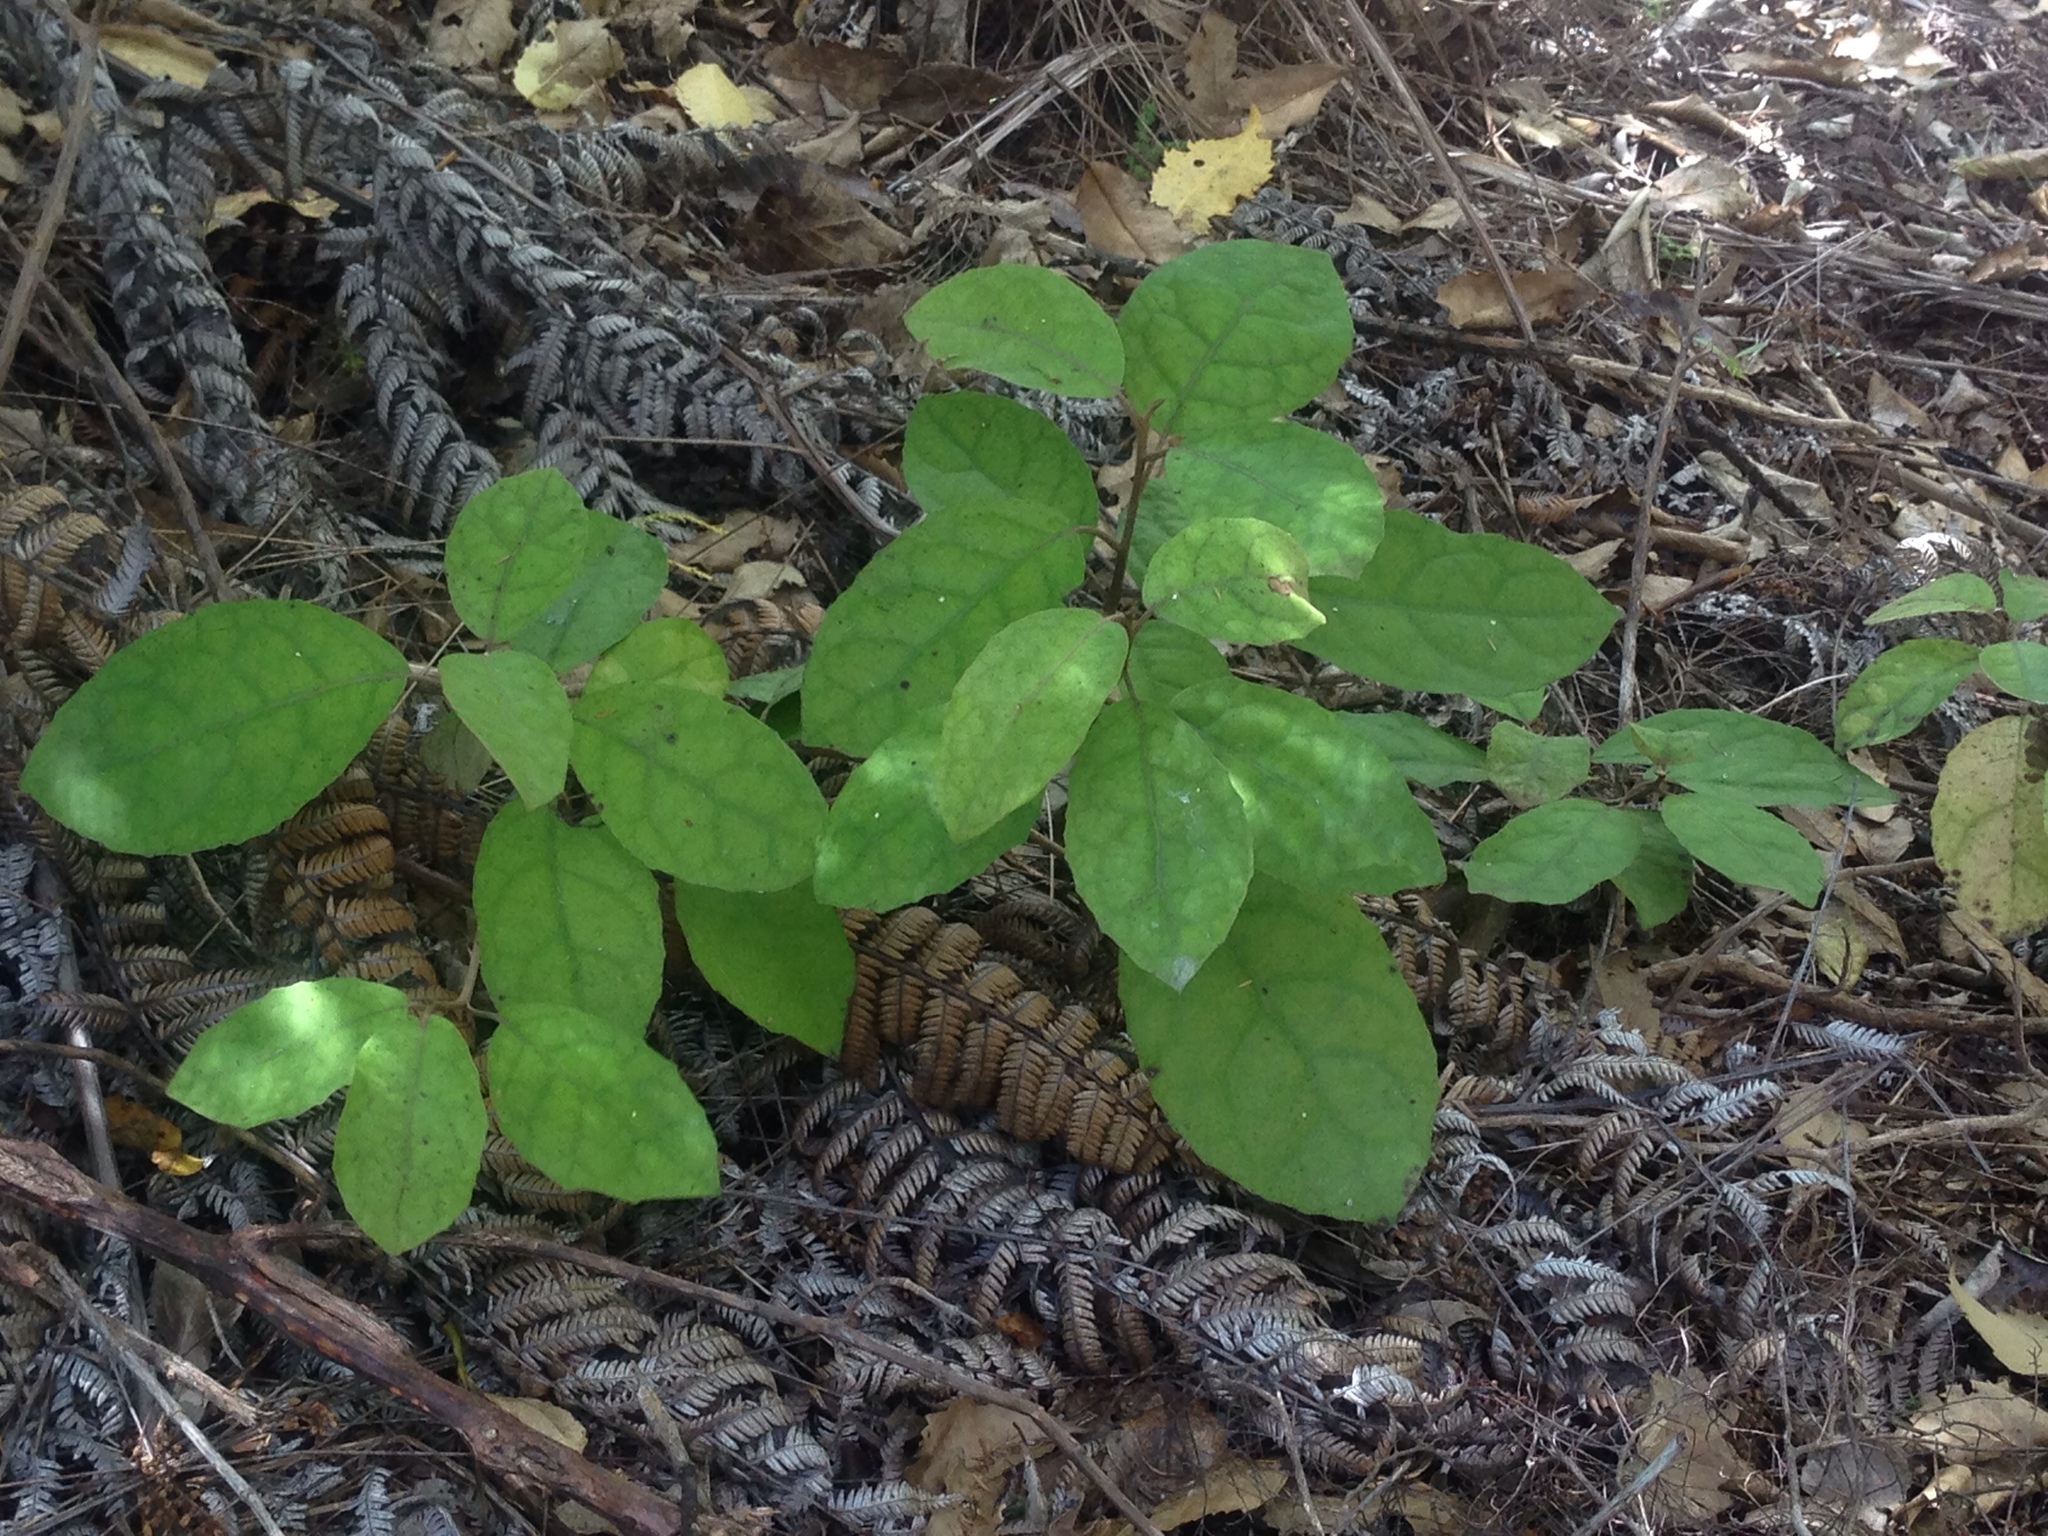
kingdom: Plantae
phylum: Tracheophyta
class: Magnoliopsida
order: Asterales
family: Asteraceae
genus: Olearia
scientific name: Olearia rani
